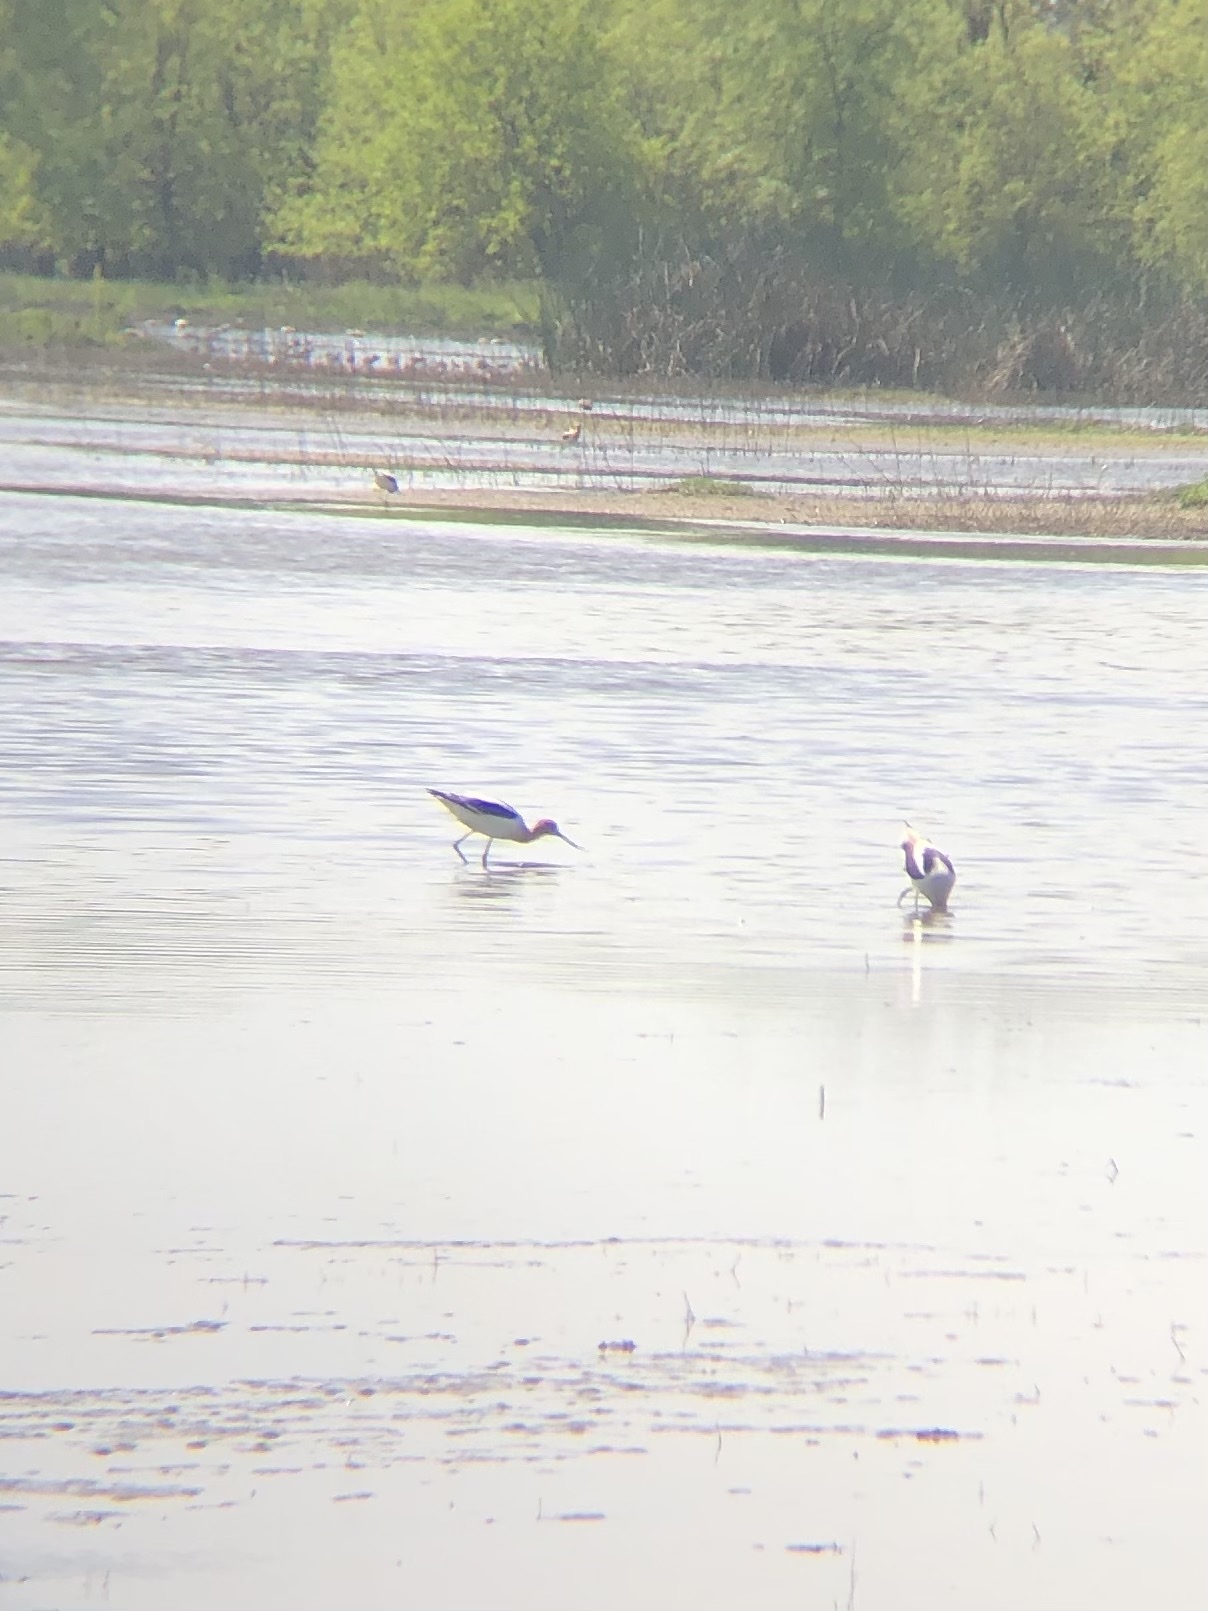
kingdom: Animalia
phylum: Chordata
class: Aves
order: Charadriiformes
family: Recurvirostridae
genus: Recurvirostra
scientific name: Recurvirostra americana
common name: American avocet
